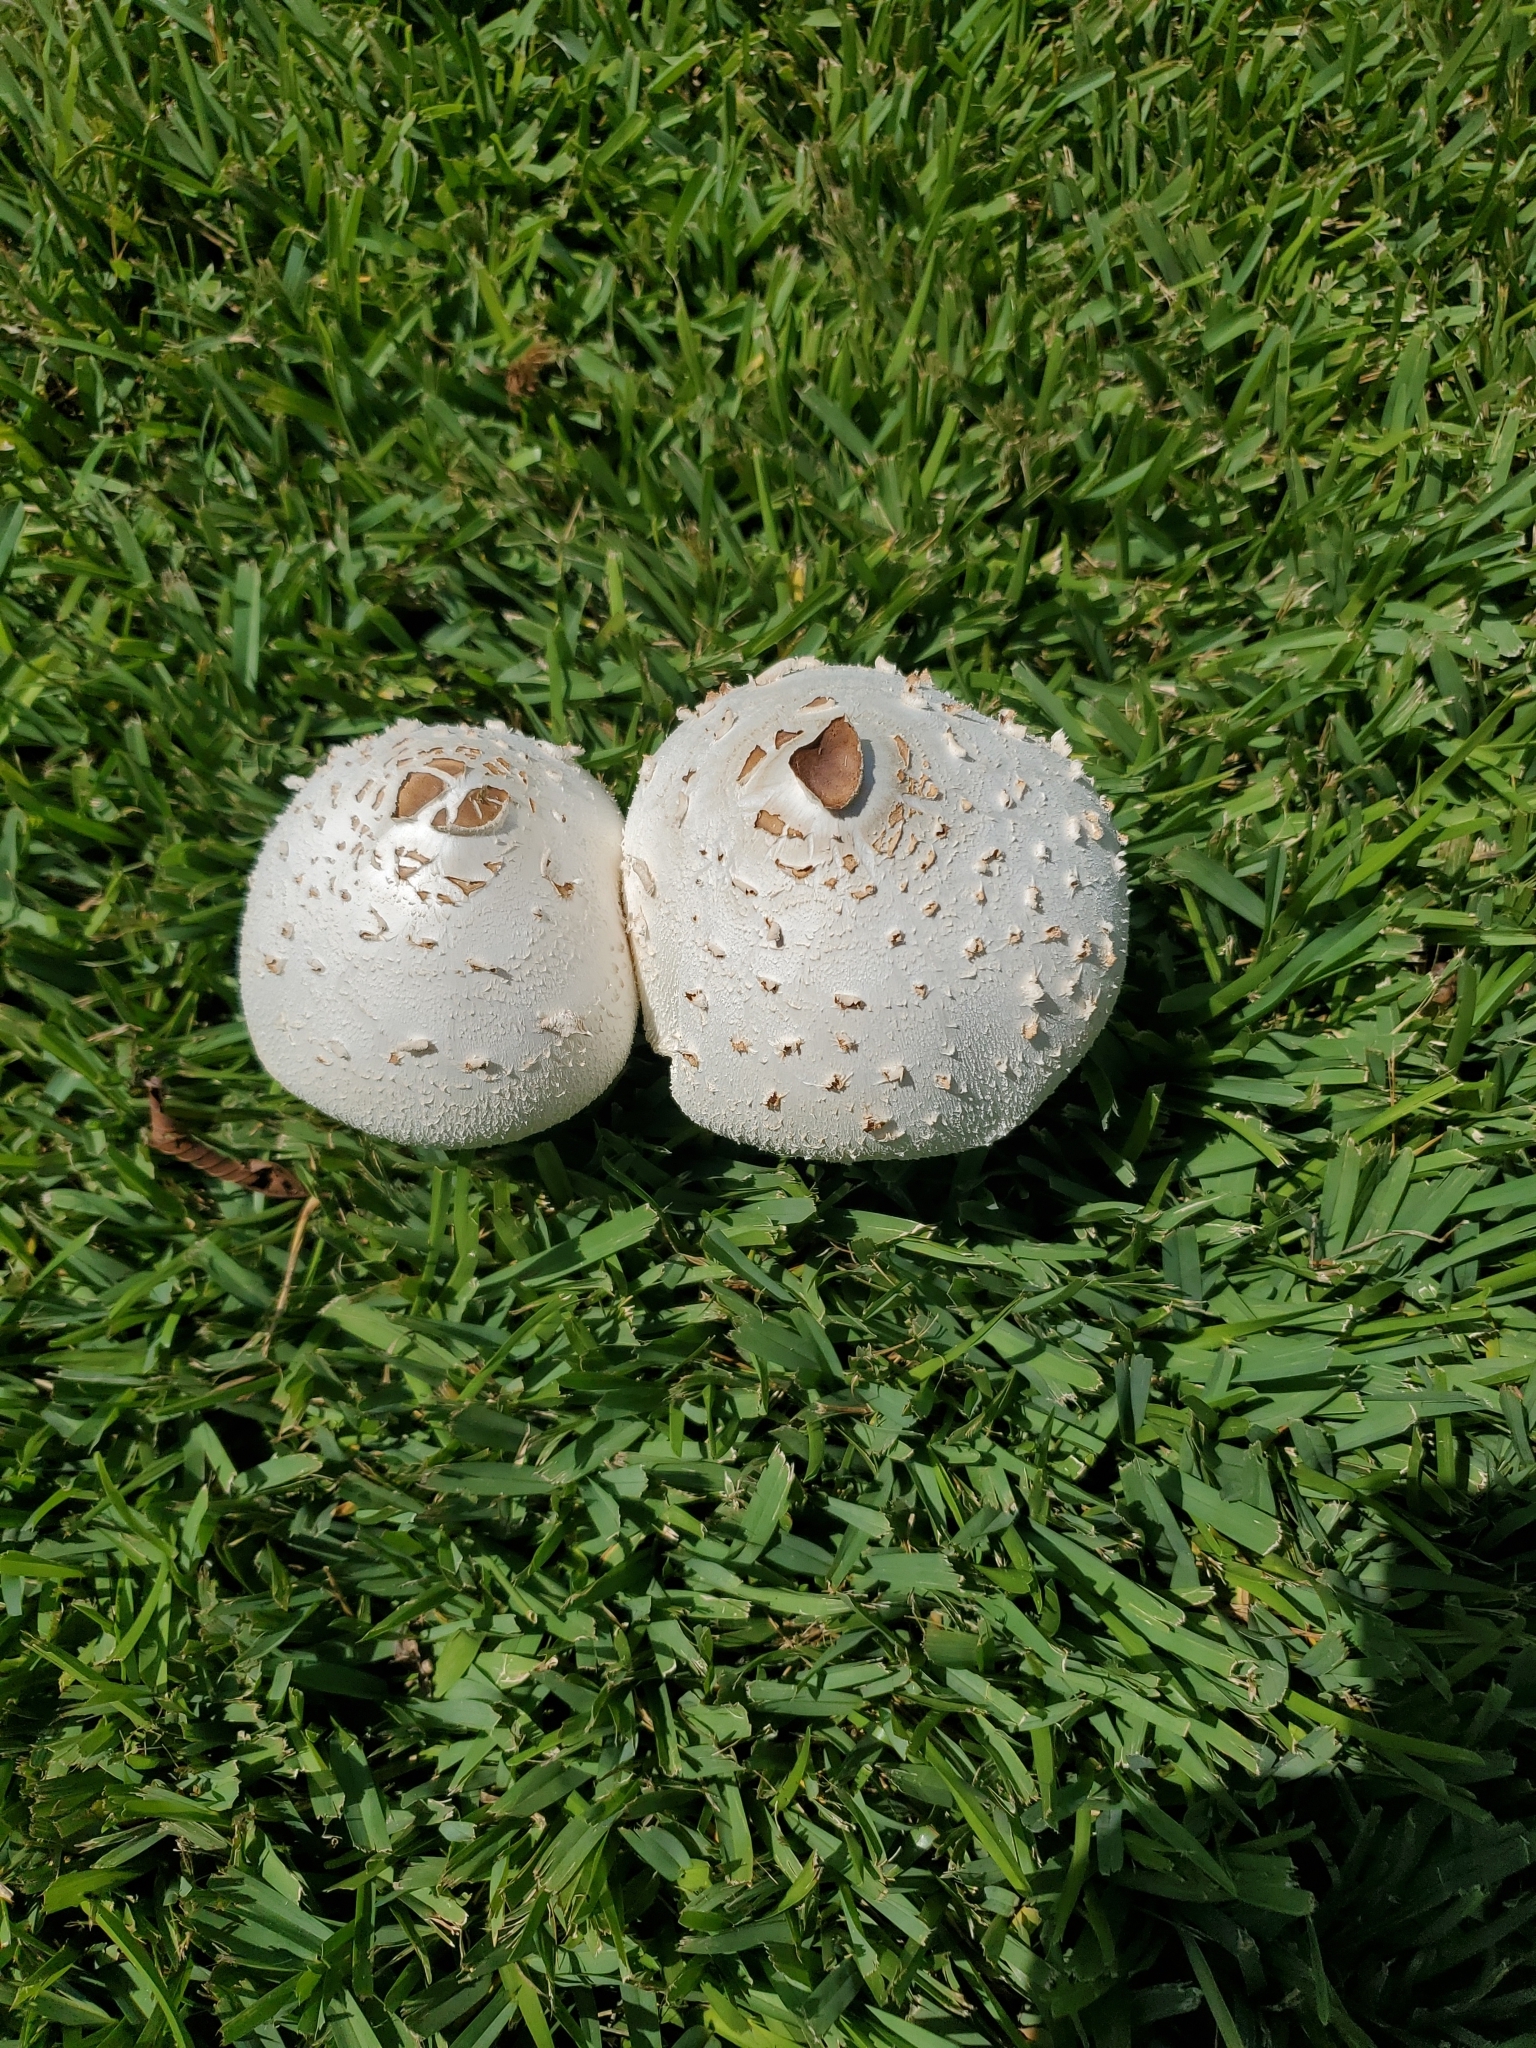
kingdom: Fungi
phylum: Basidiomycota
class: Agaricomycetes
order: Agaricales
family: Agaricaceae
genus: Chlorophyllum
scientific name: Chlorophyllum molybdites
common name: False parasol
